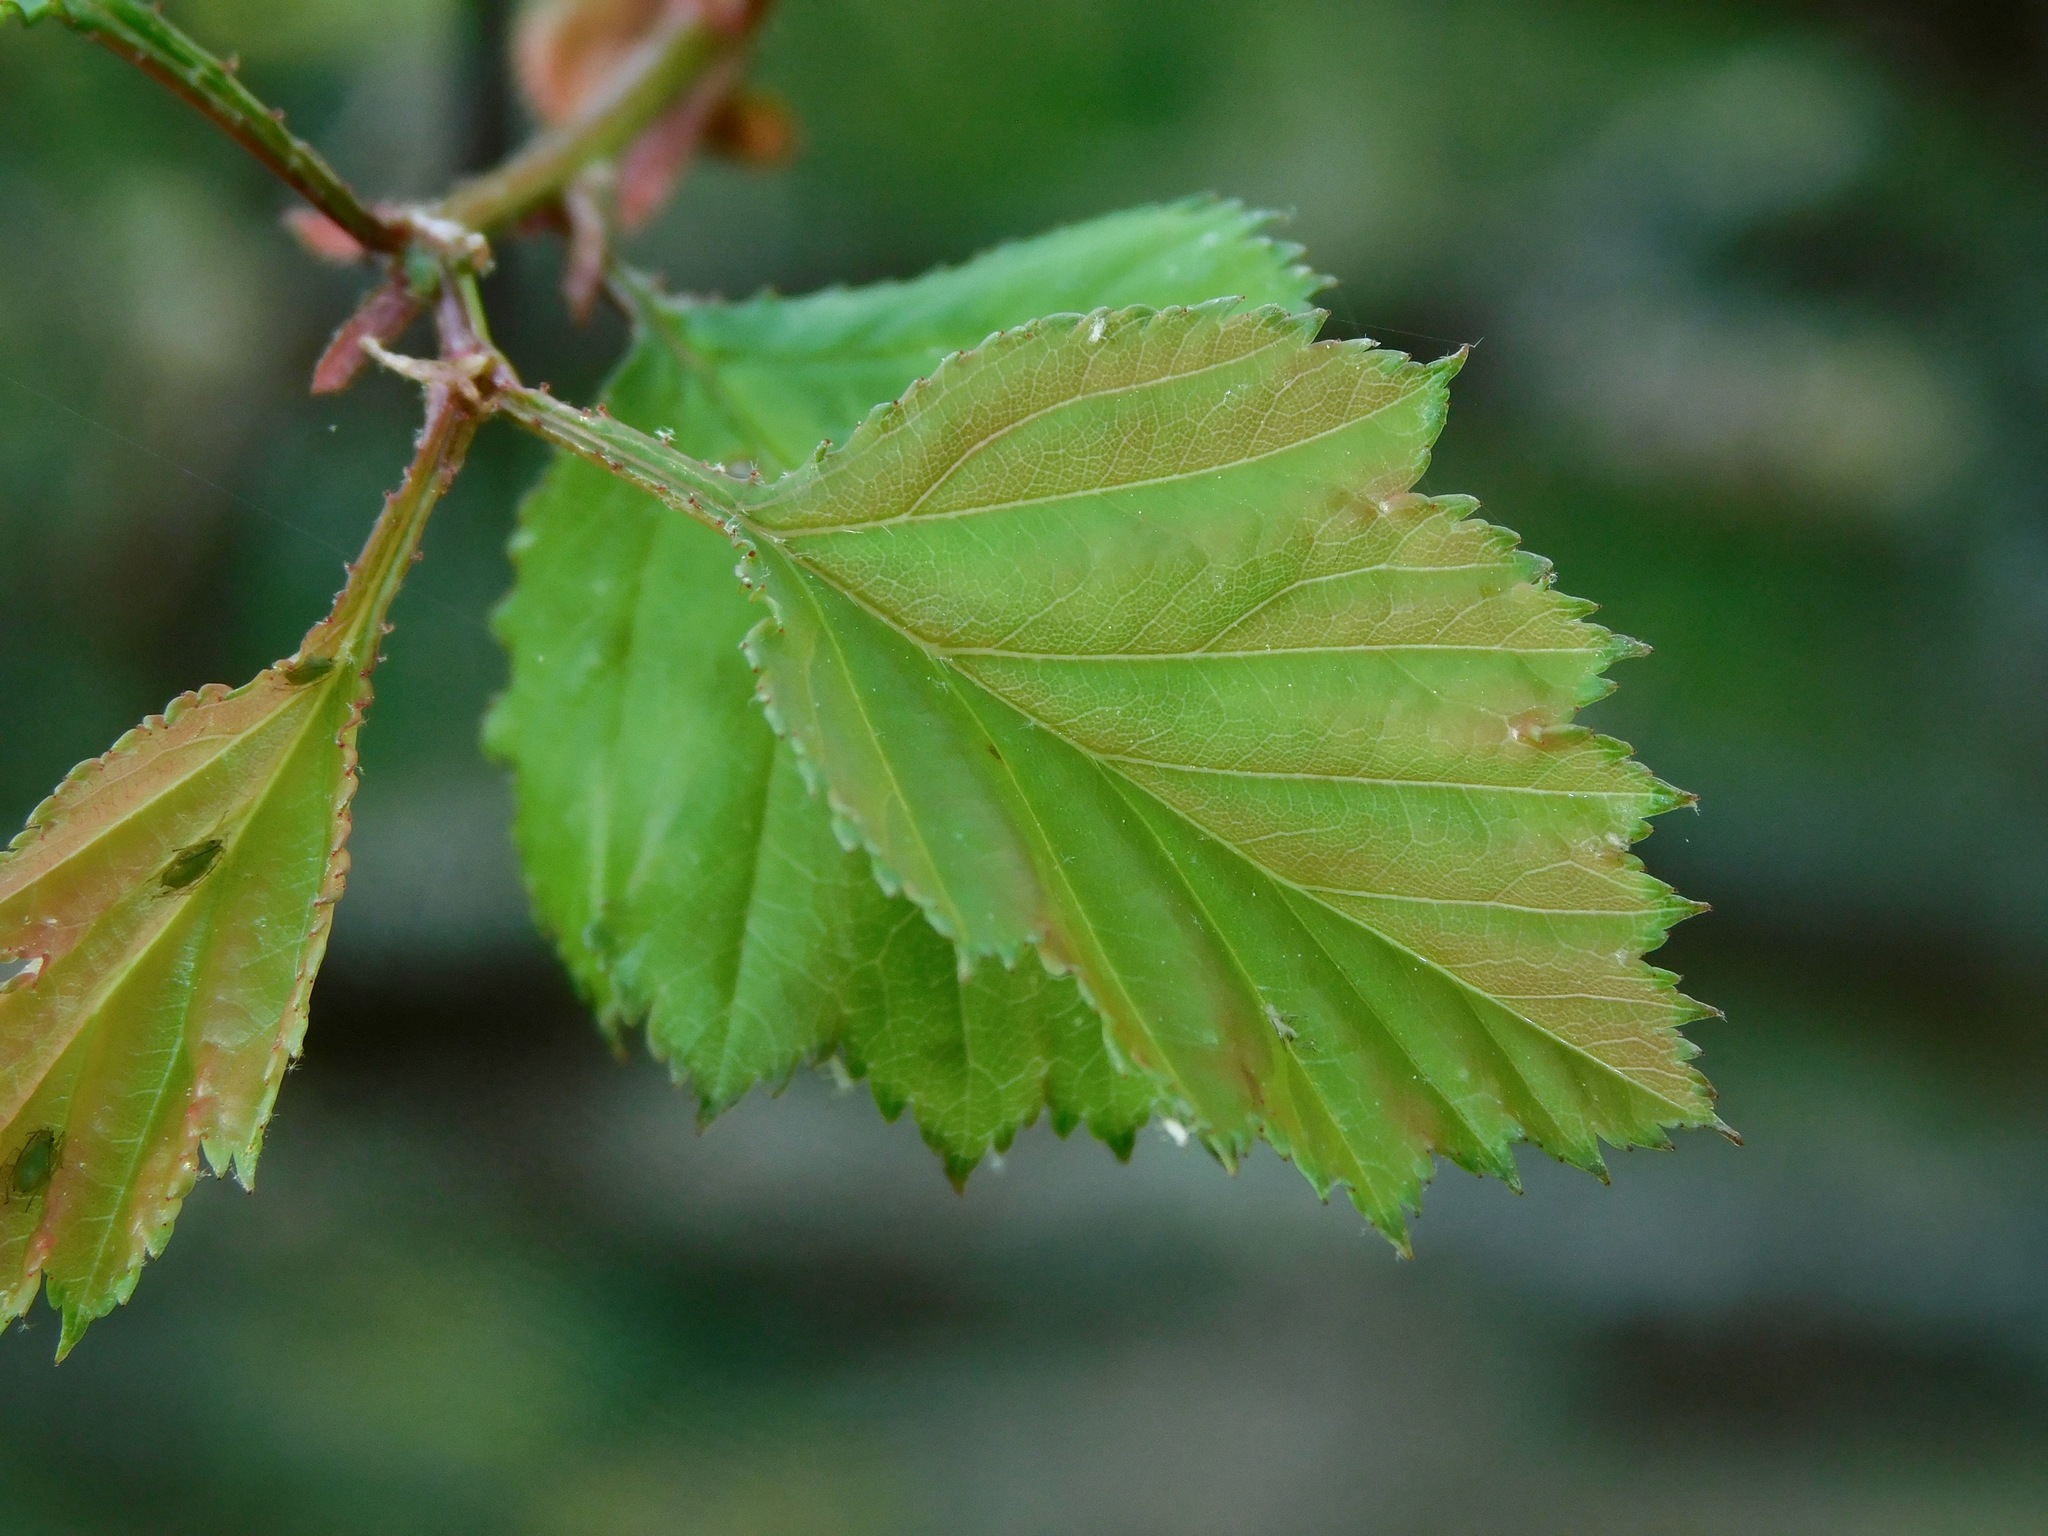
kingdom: Plantae
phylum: Tracheophyta
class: Magnoliopsida
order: Rosales
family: Rosaceae
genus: Crataegus
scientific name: Crataegus flava
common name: Yellow hawthorn
